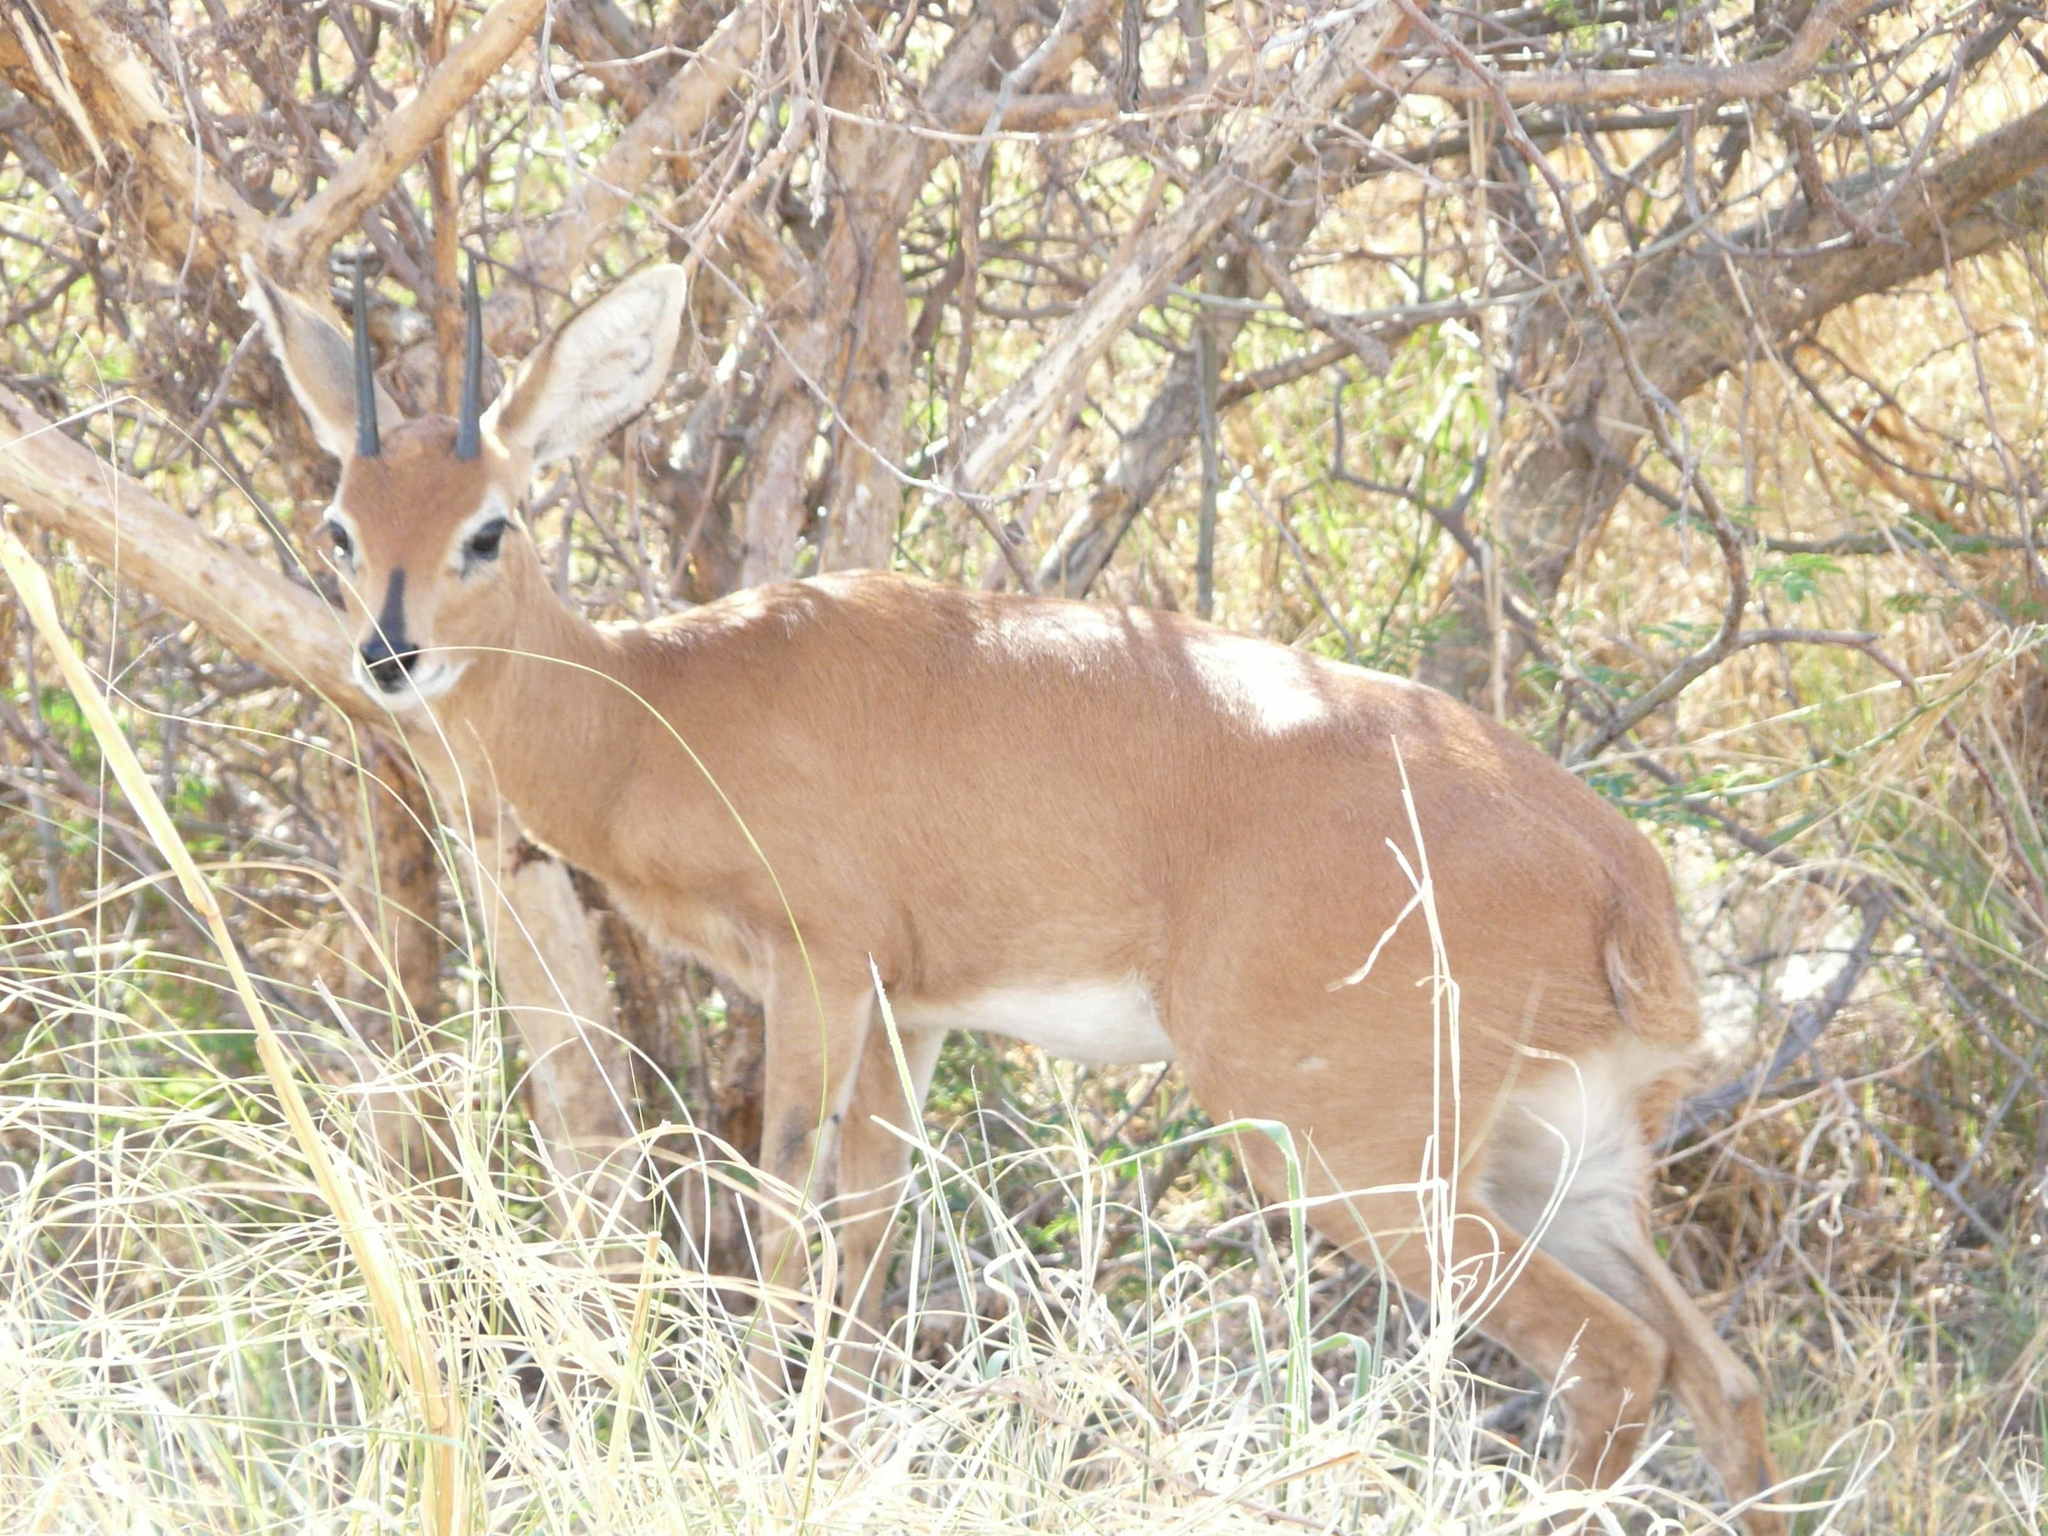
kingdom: Animalia
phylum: Chordata
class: Mammalia
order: Artiodactyla
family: Bovidae
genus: Raphicerus
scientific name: Raphicerus campestris
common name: Steenbok
